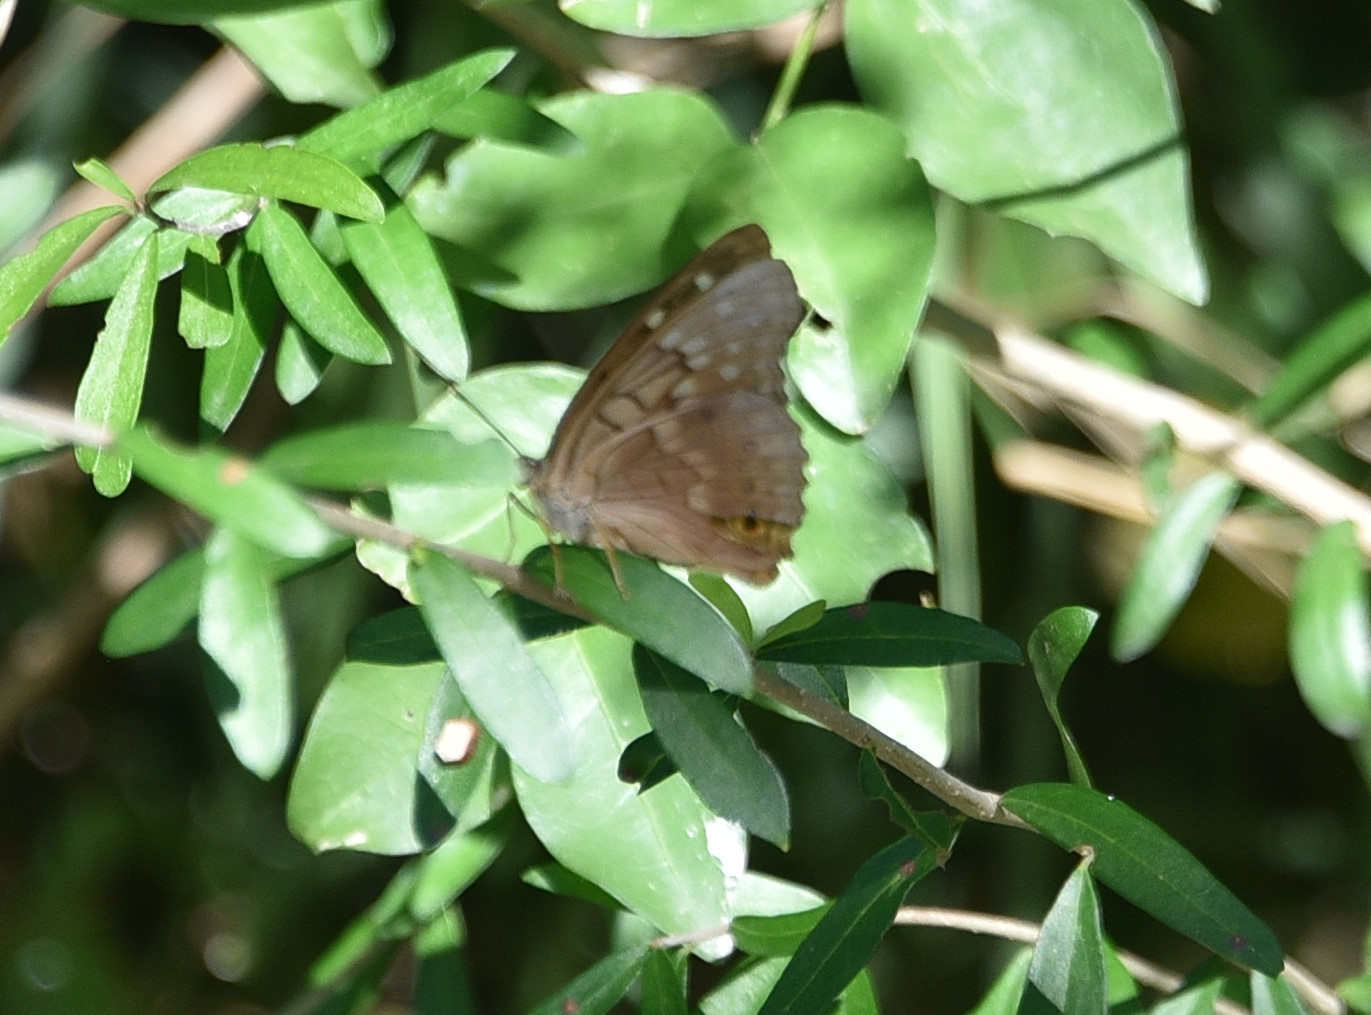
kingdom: Animalia
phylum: Arthropoda
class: Insecta
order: Lepidoptera
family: Nymphalidae
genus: Asterocampa
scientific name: Asterocampa clyton
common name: Tawny emperor
